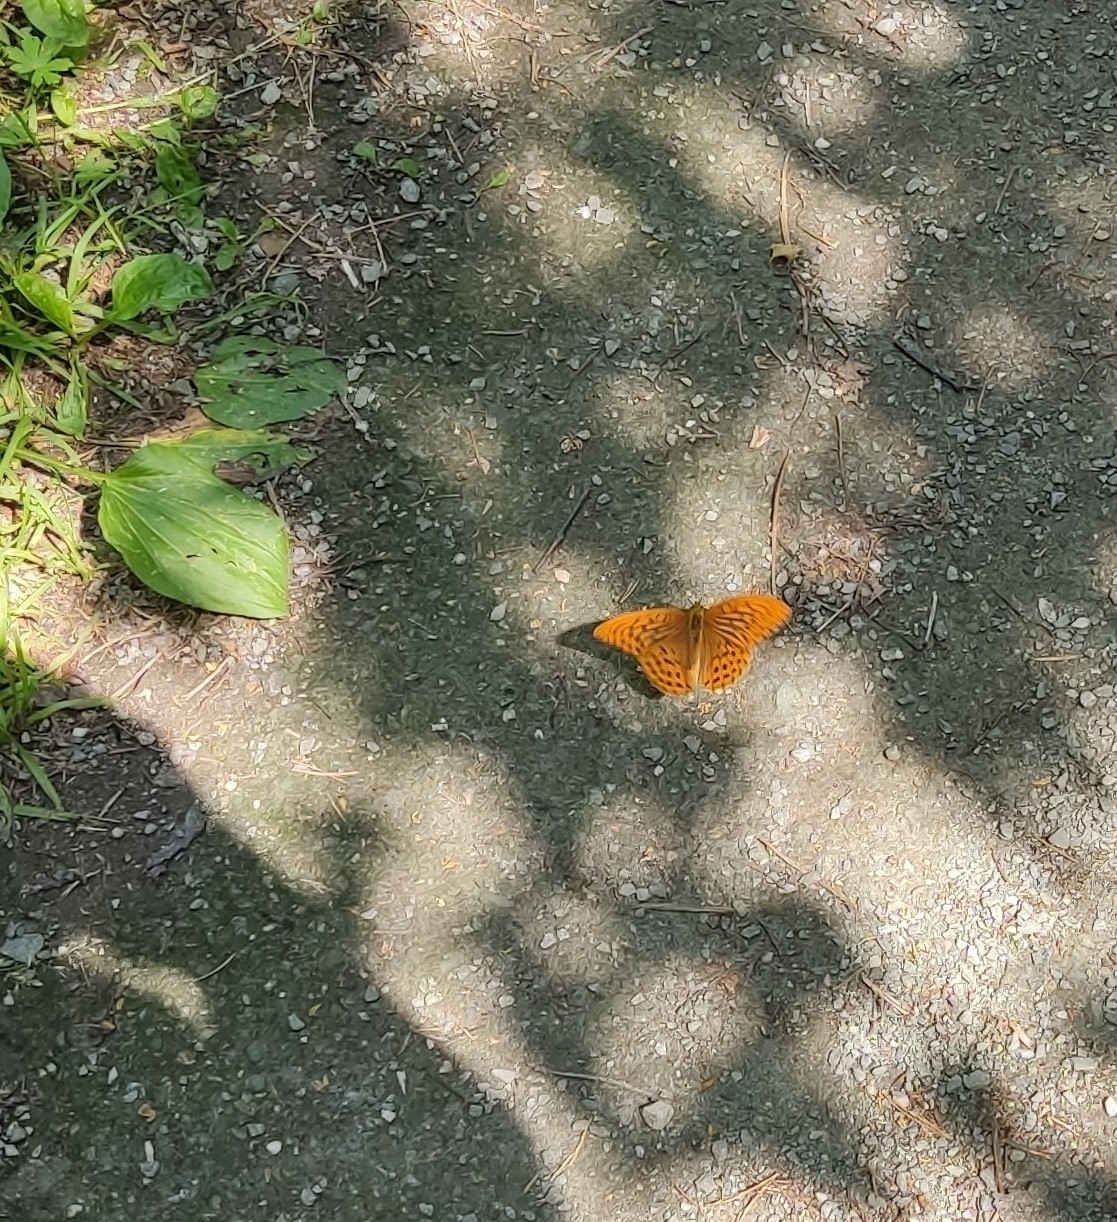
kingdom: Animalia
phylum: Arthropoda
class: Insecta
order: Lepidoptera
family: Nymphalidae
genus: Argynnis
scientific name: Argynnis paphia
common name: Silver-washed fritillary
